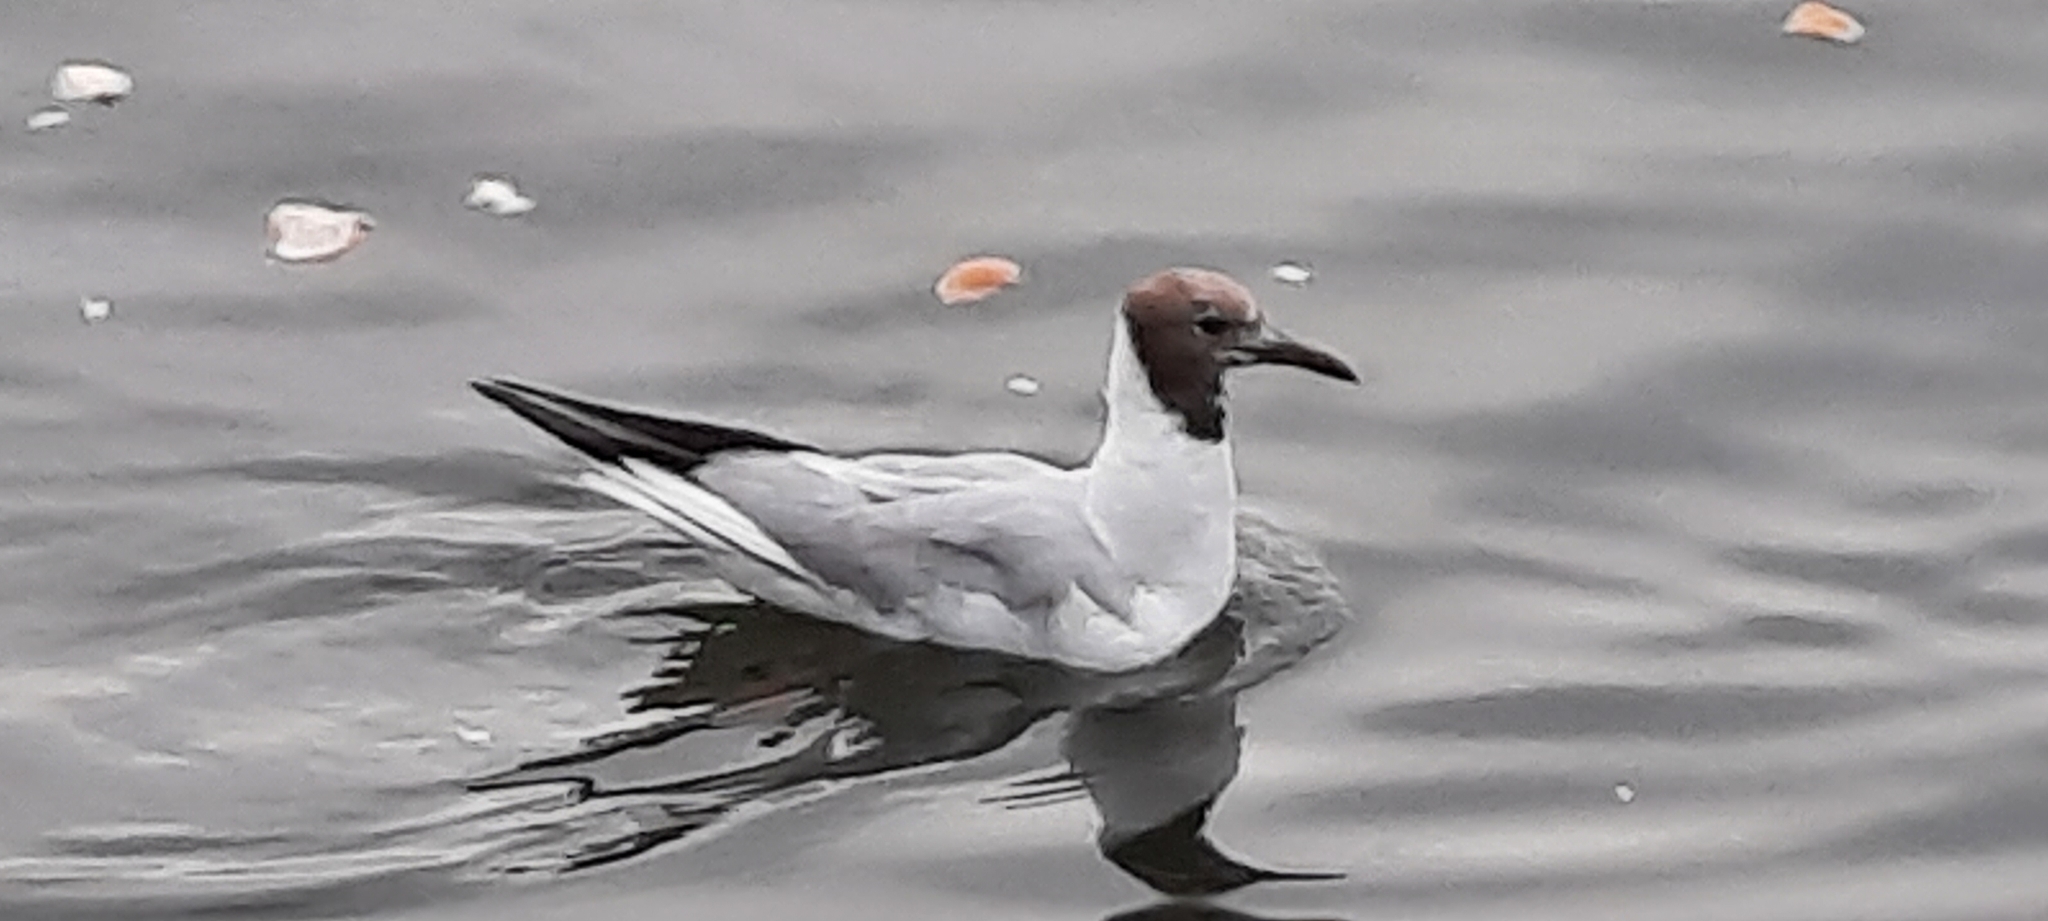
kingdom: Animalia
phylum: Chordata
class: Aves
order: Charadriiformes
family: Laridae
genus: Chroicocephalus
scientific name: Chroicocephalus ridibundus
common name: Black-headed gull
